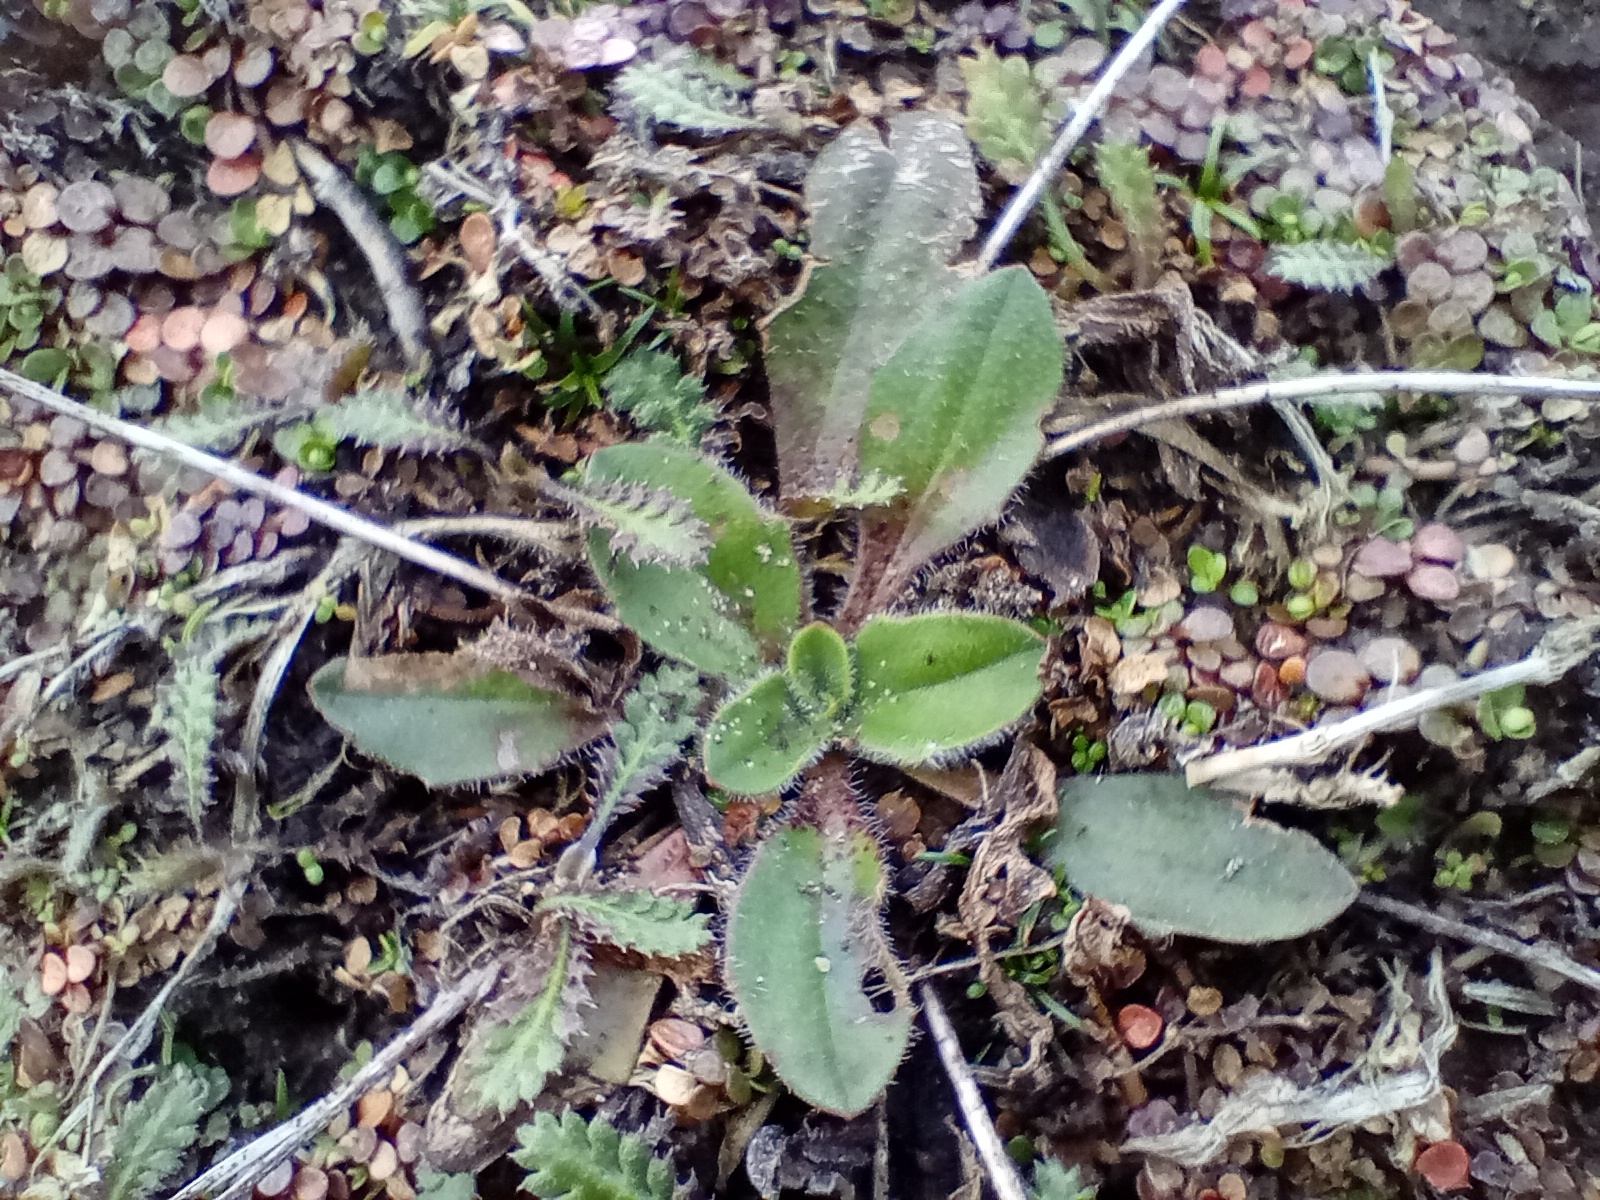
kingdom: Plantae
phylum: Tracheophyta
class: Magnoliopsida
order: Lamiales
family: Plantaginaceae
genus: Plantago
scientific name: Plantago raoulii
